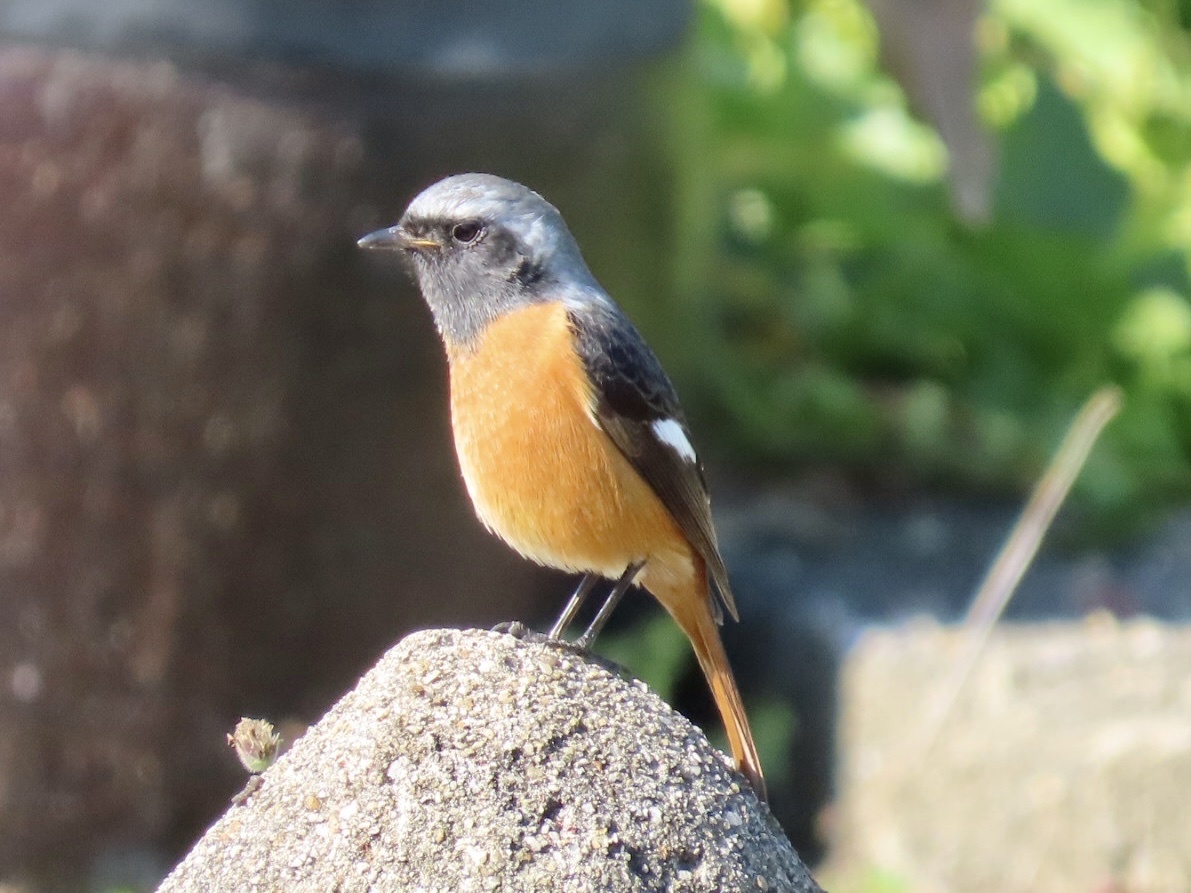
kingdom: Animalia
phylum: Chordata
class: Aves
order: Passeriformes
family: Muscicapidae
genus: Phoenicurus
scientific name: Phoenicurus auroreus
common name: Daurian redstart
